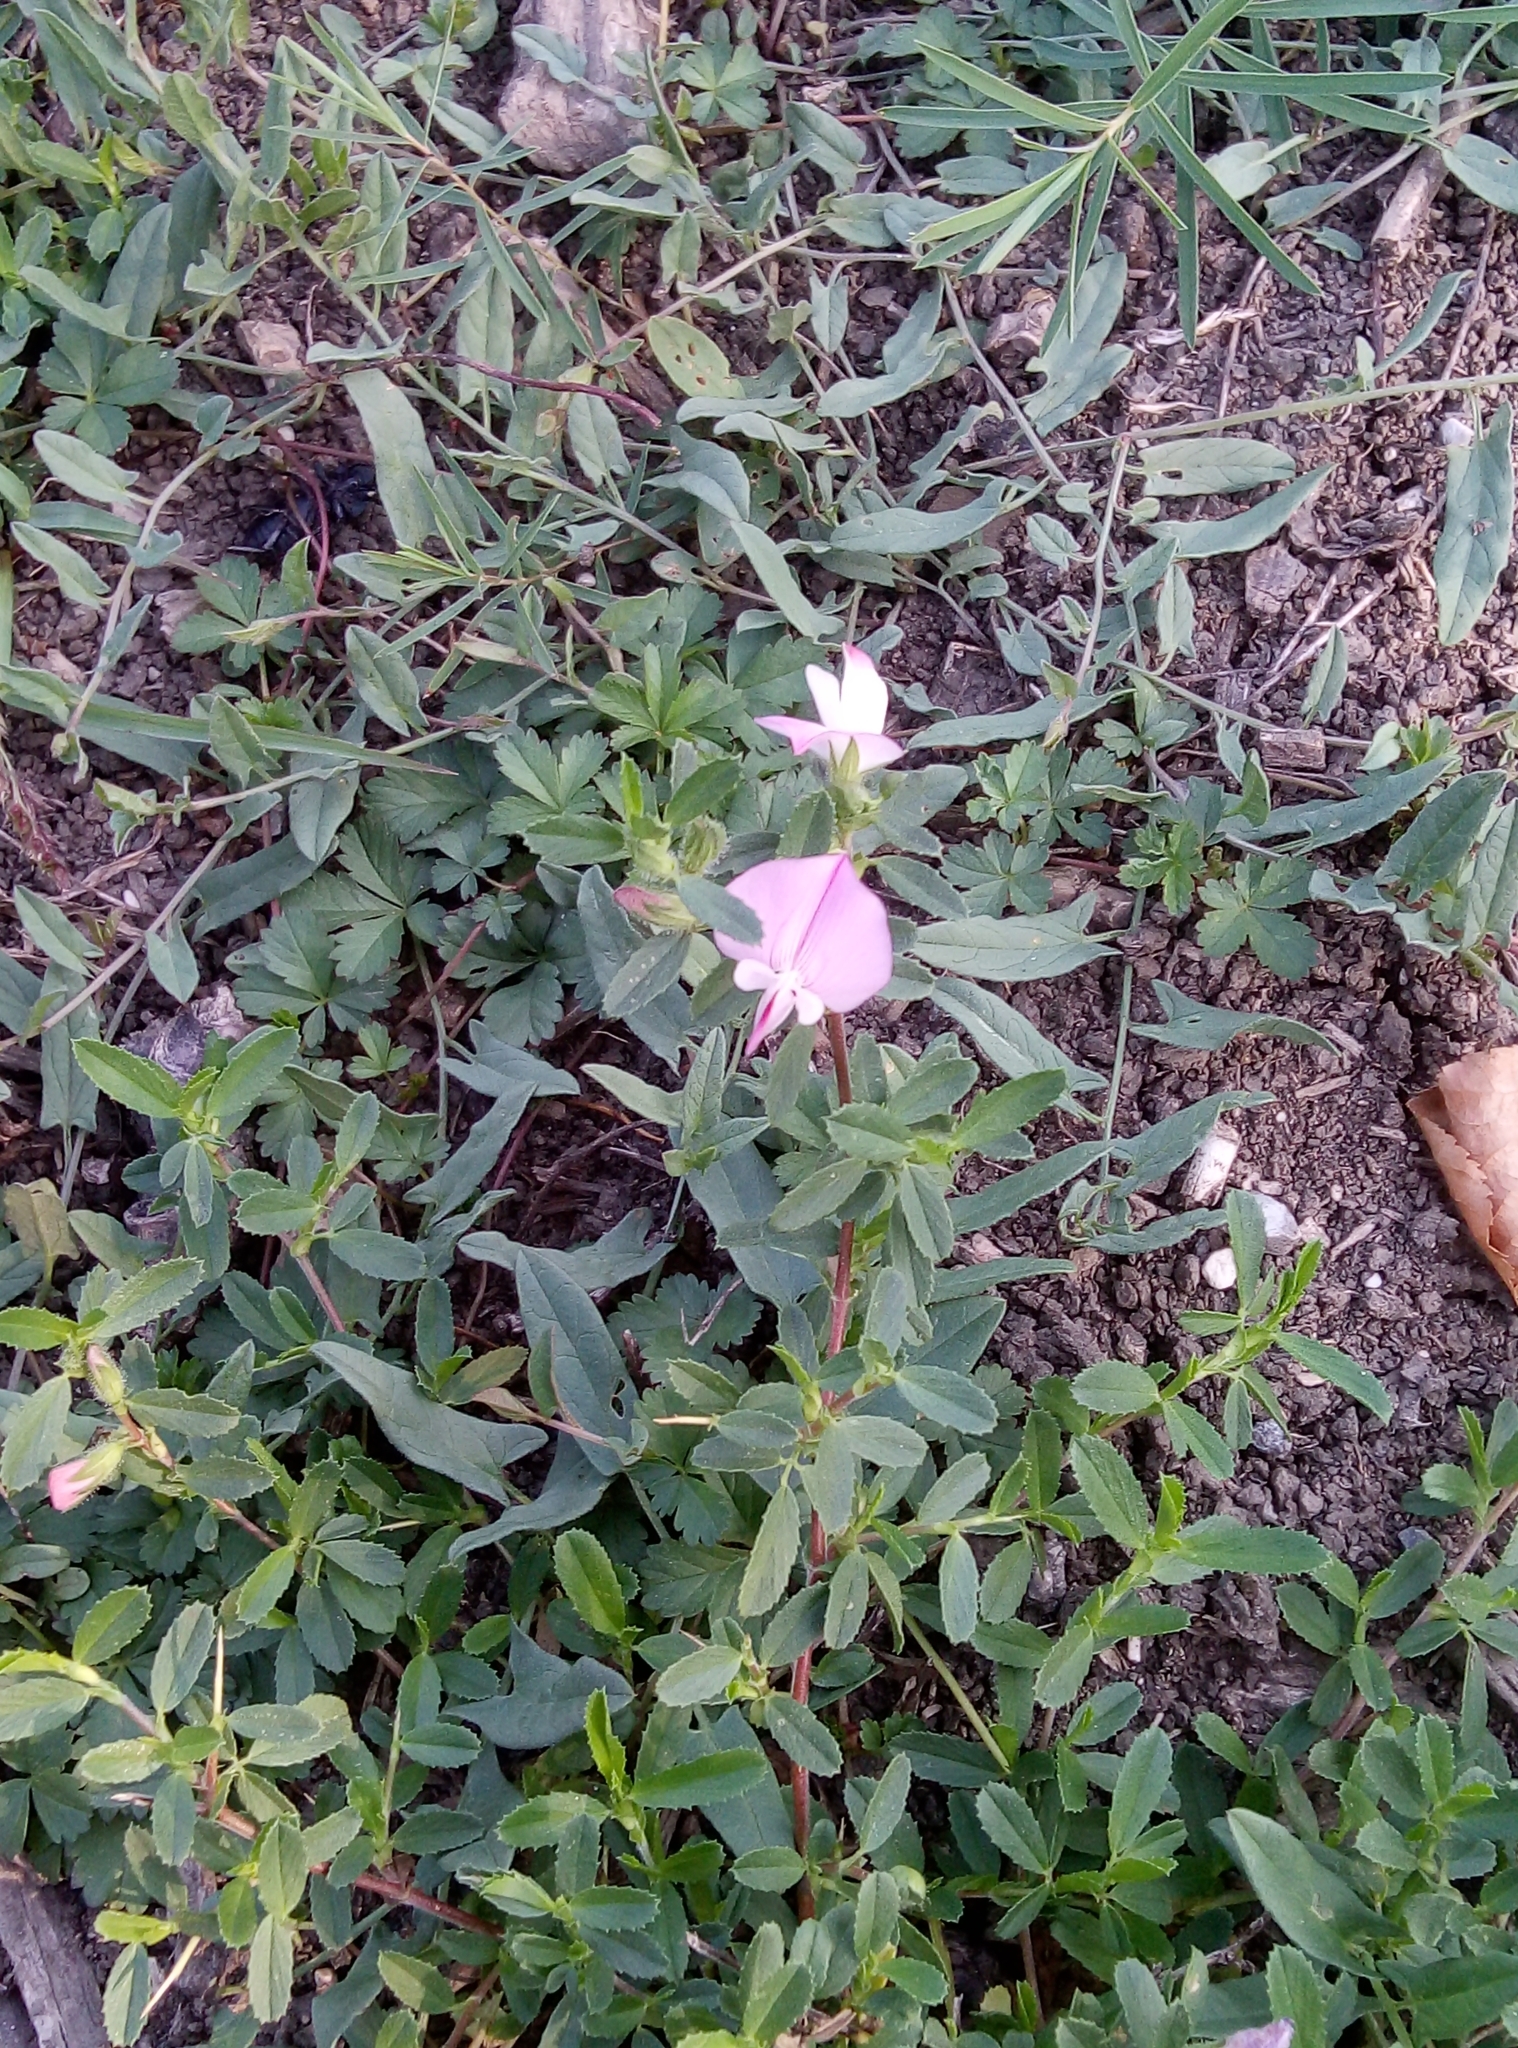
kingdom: Plantae
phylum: Tracheophyta
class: Magnoliopsida
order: Fabales
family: Fabaceae
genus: Ononis
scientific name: Ononis spinosa
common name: Spiny restharrow
